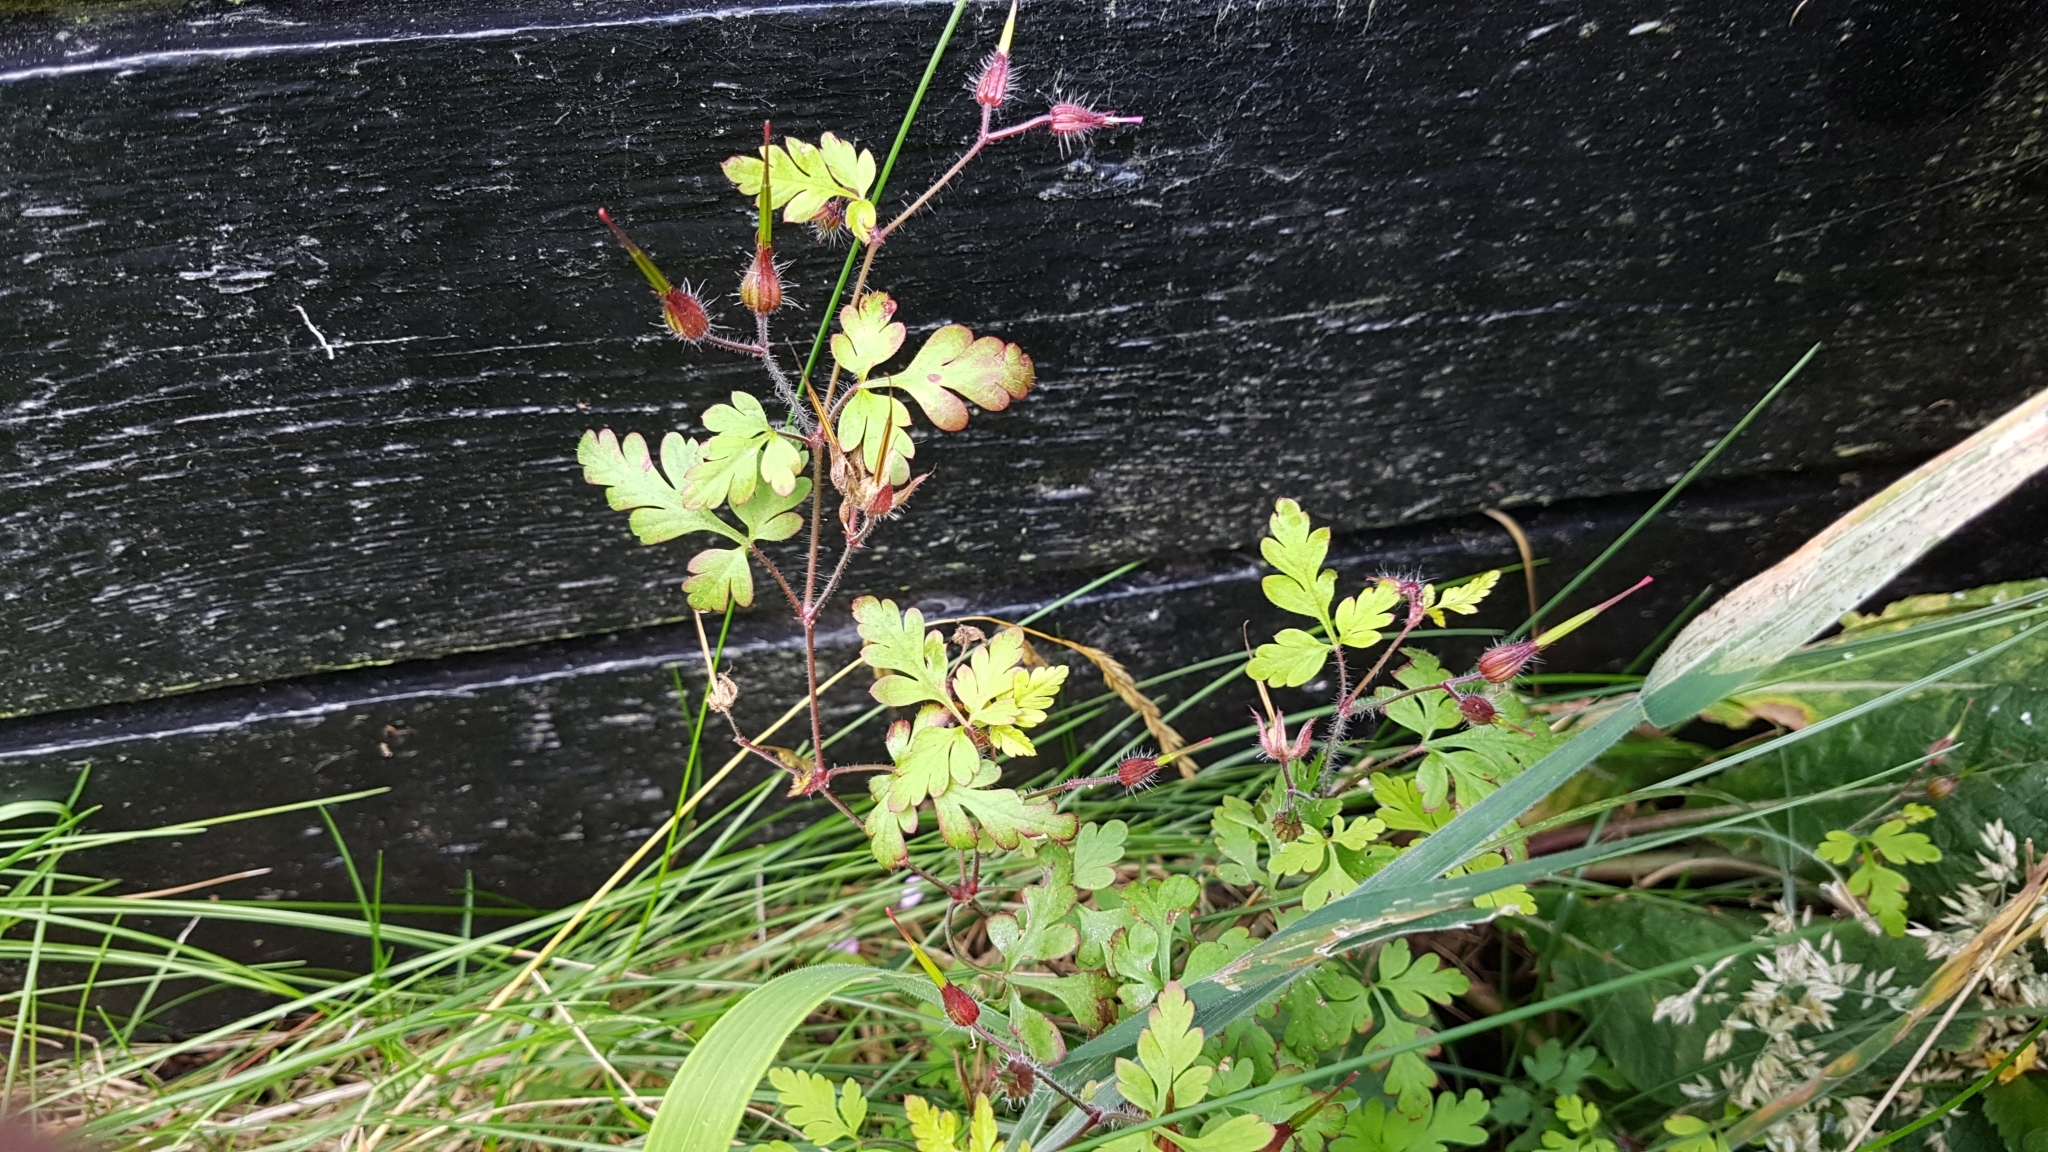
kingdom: Plantae
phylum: Tracheophyta
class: Magnoliopsida
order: Geraniales
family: Geraniaceae
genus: Geranium
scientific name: Geranium robertianum
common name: Herb-robert
